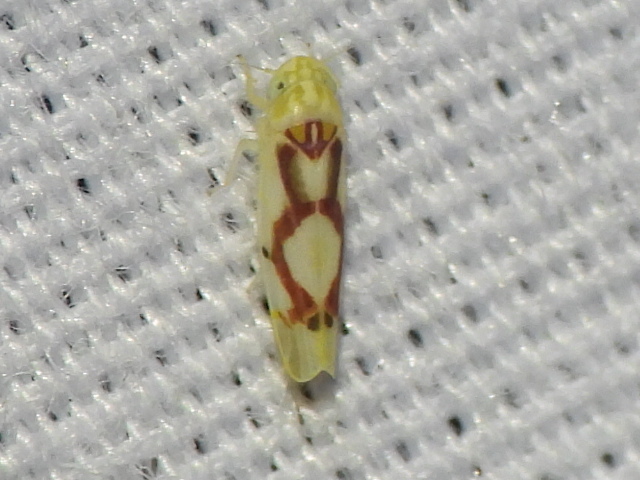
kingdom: Animalia
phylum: Arthropoda
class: Insecta
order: Hemiptera
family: Cicadellidae
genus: Eratoneura
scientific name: Eratoneura ligata
